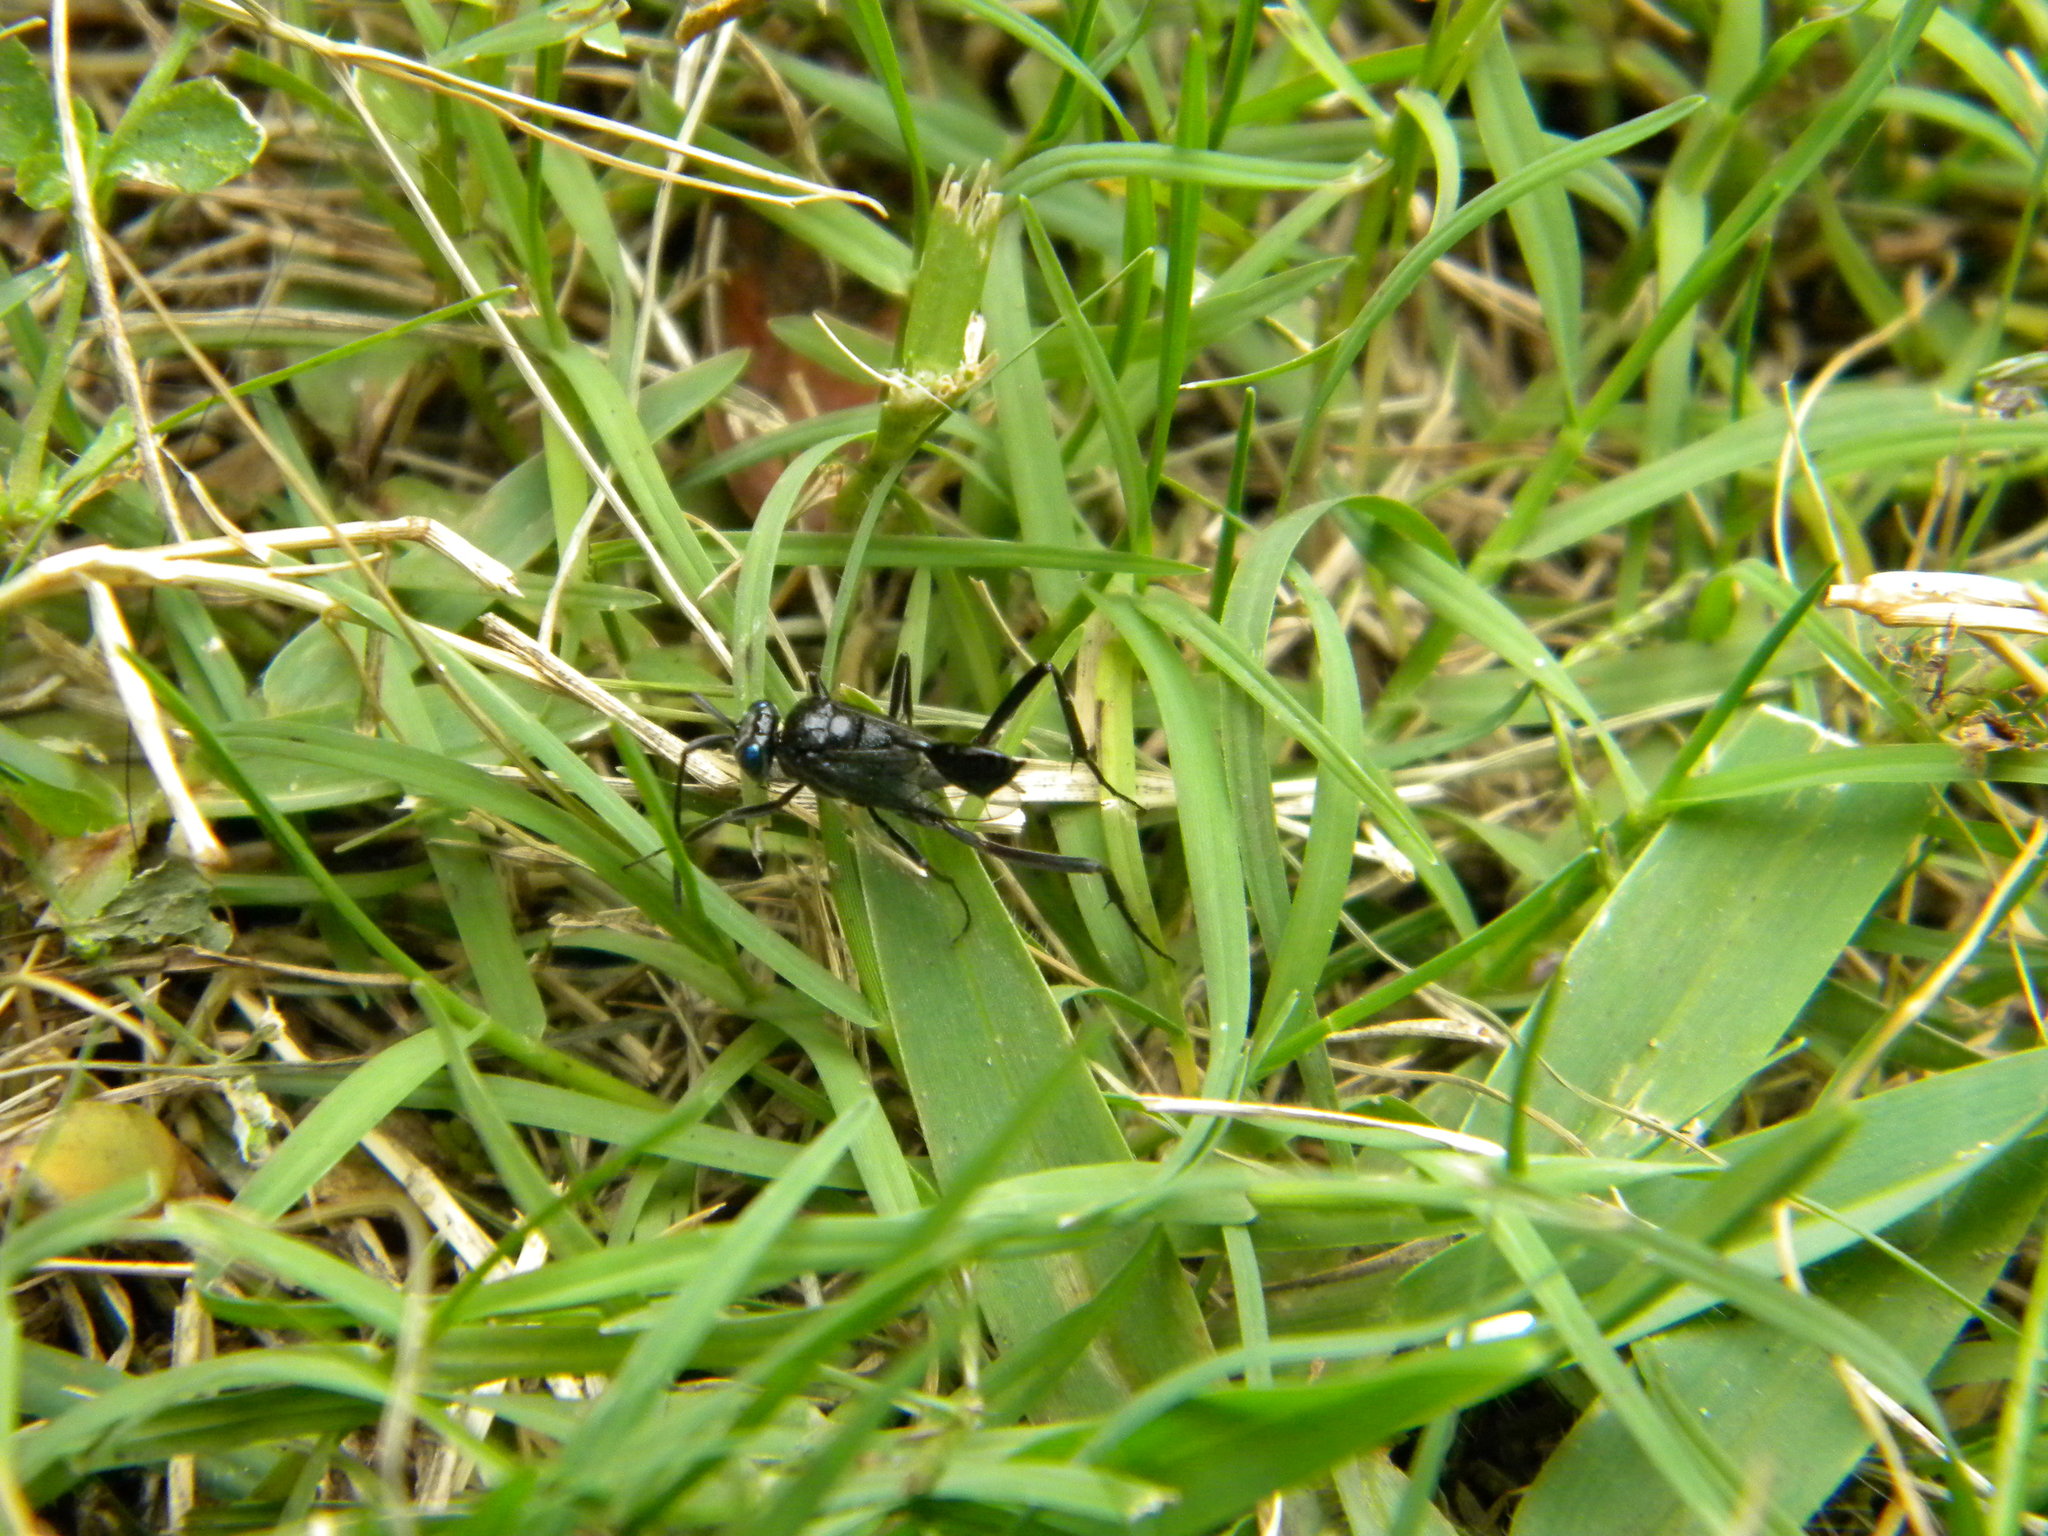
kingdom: Animalia
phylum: Arthropoda
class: Insecta
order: Hymenoptera
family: Evaniidae
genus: Evania
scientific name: Evania appendigaster
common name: Ensign wasp
